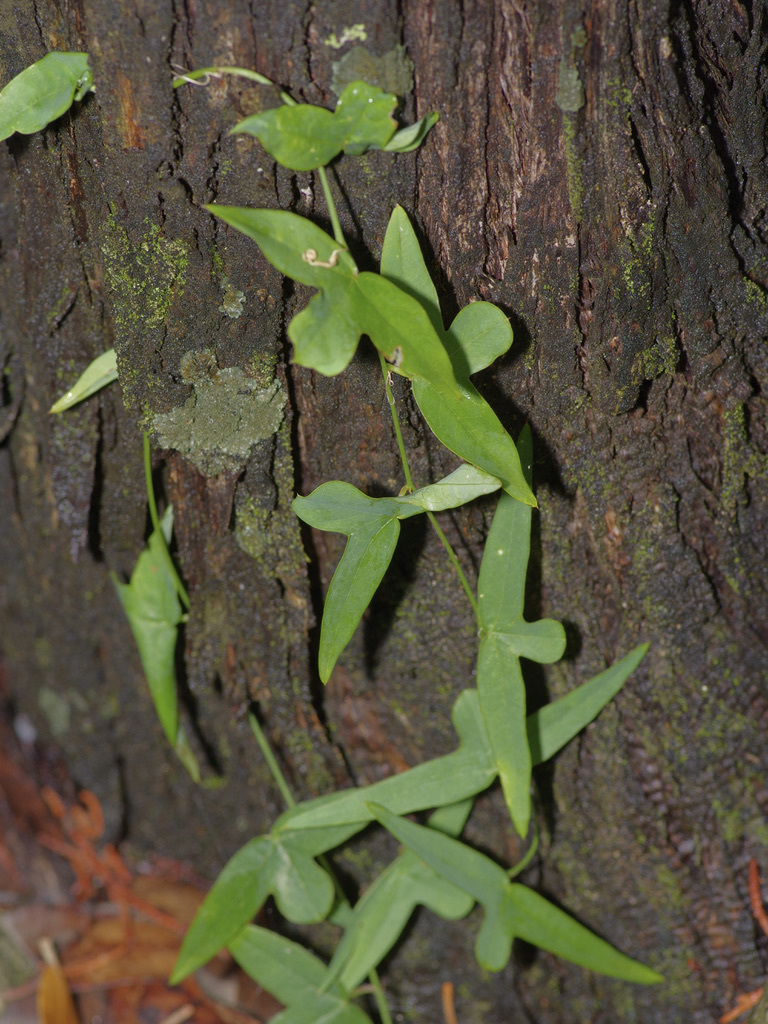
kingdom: Plantae
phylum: Tracheophyta
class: Magnoliopsida
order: Malpighiales
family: Passifloraceae
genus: Passiflora
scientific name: Passiflora tenuiloba
